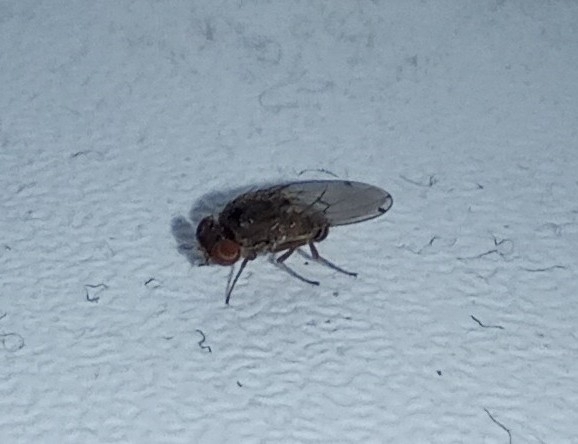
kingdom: Animalia
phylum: Arthropoda
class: Insecta
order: Diptera
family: Drosophilidae
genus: Gitona
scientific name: Gitona distigma
